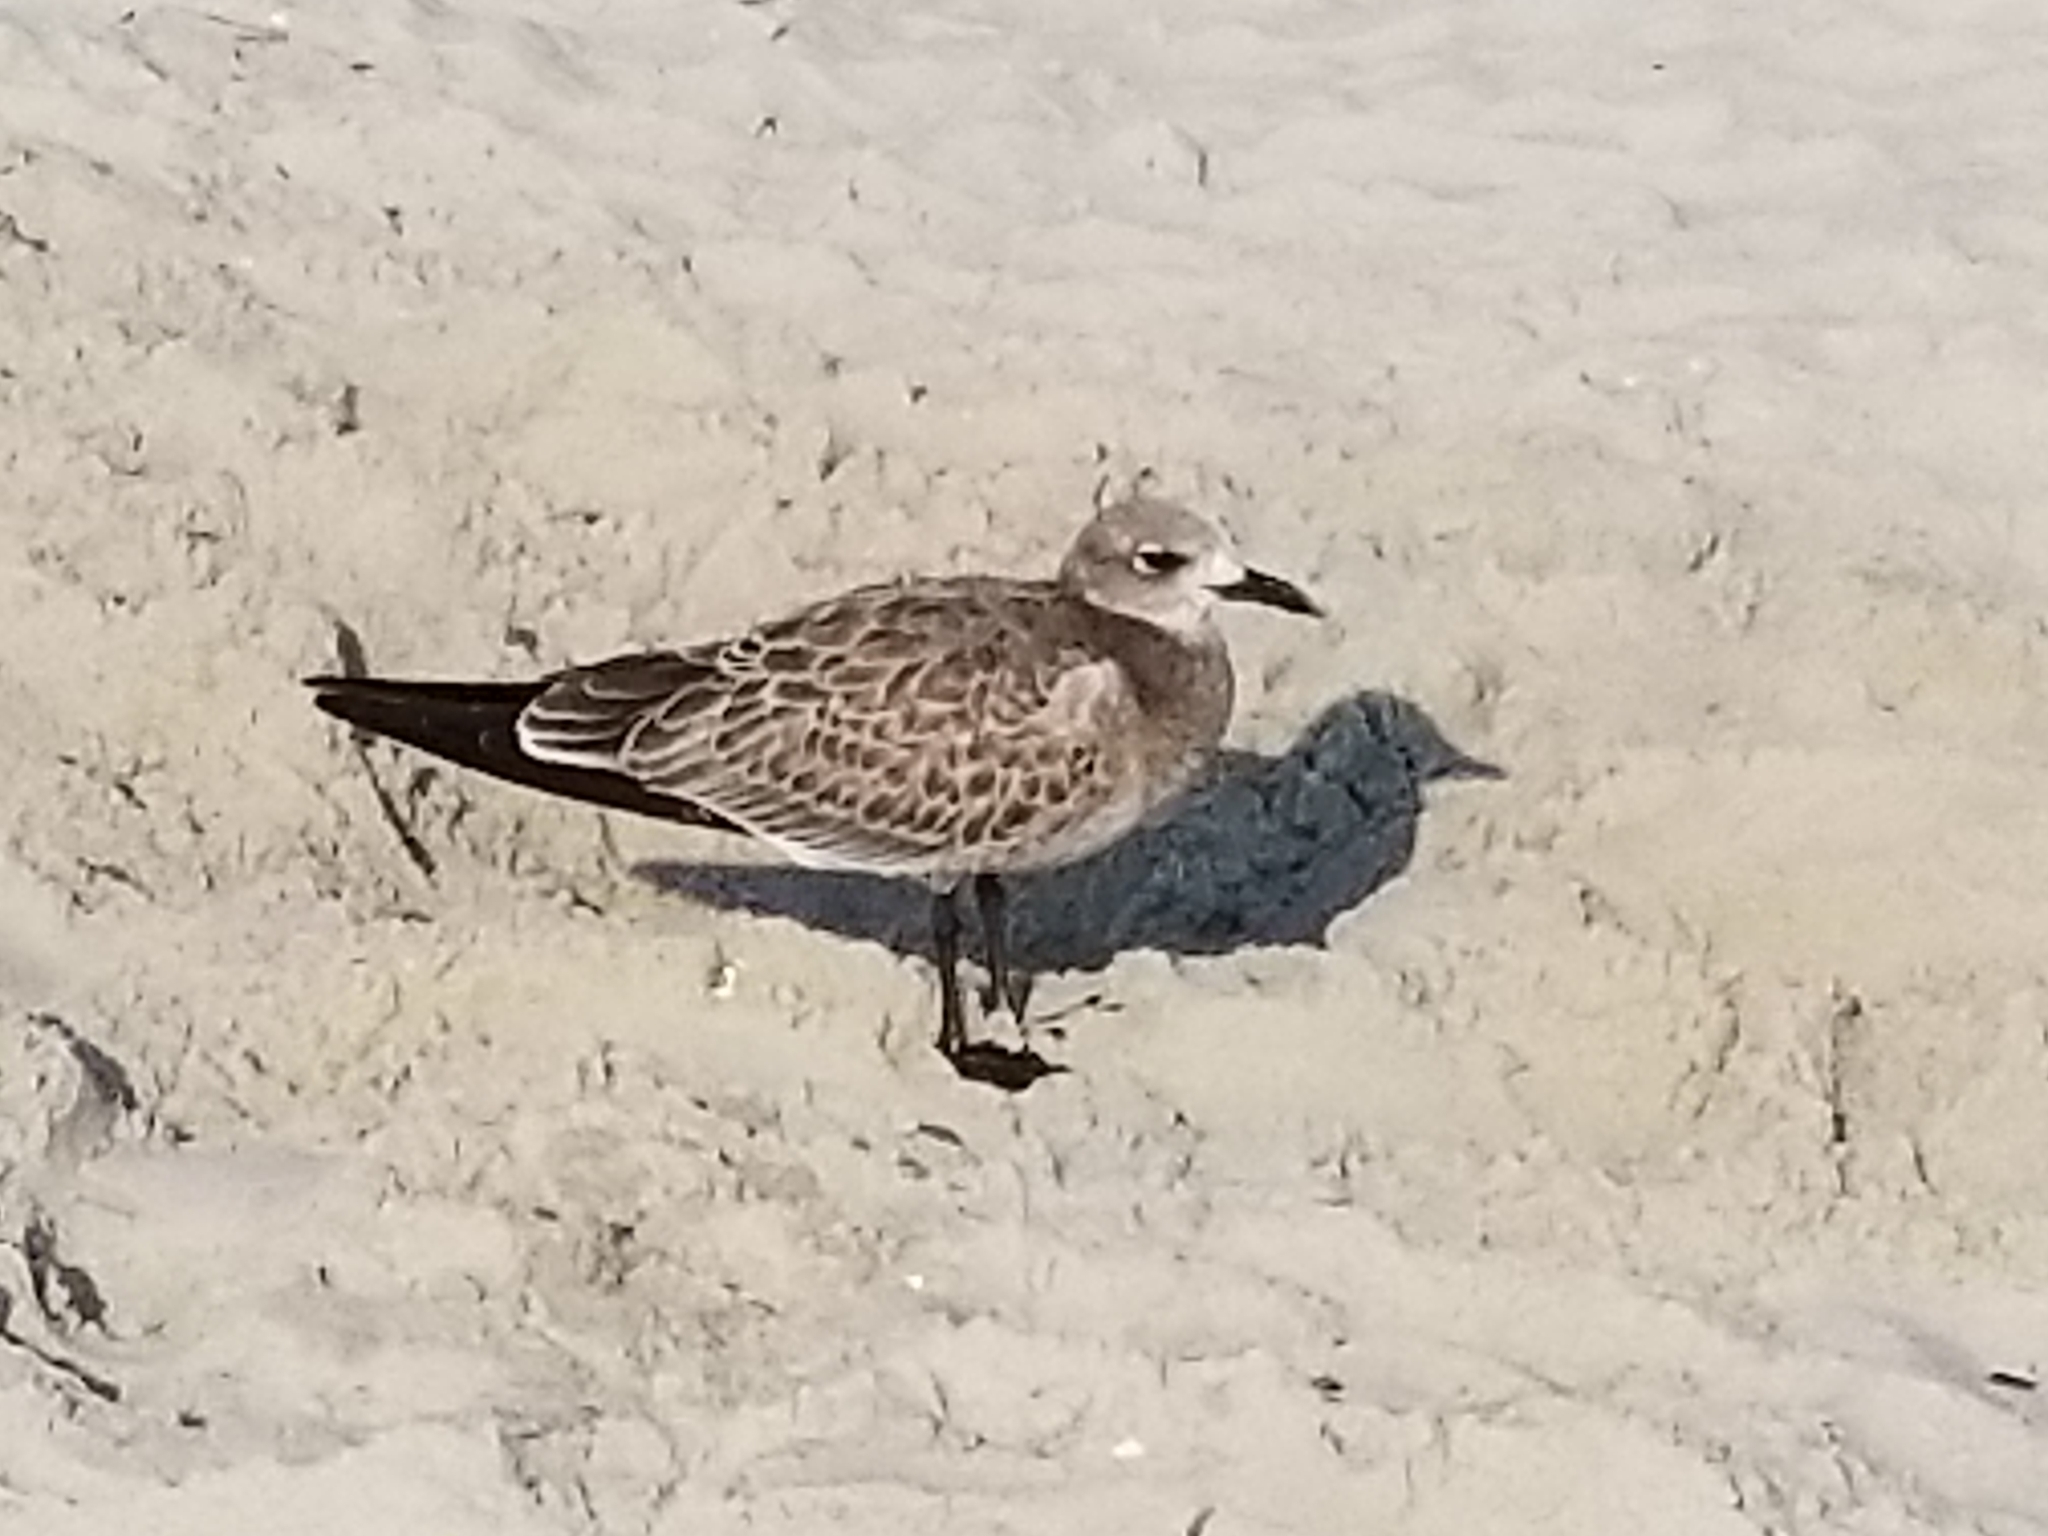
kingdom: Animalia
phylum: Chordata
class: Aves
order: Charadriiformes
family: Laridae
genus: Leucophaeus
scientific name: Leucophaeus atricilla
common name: Laughing gull
